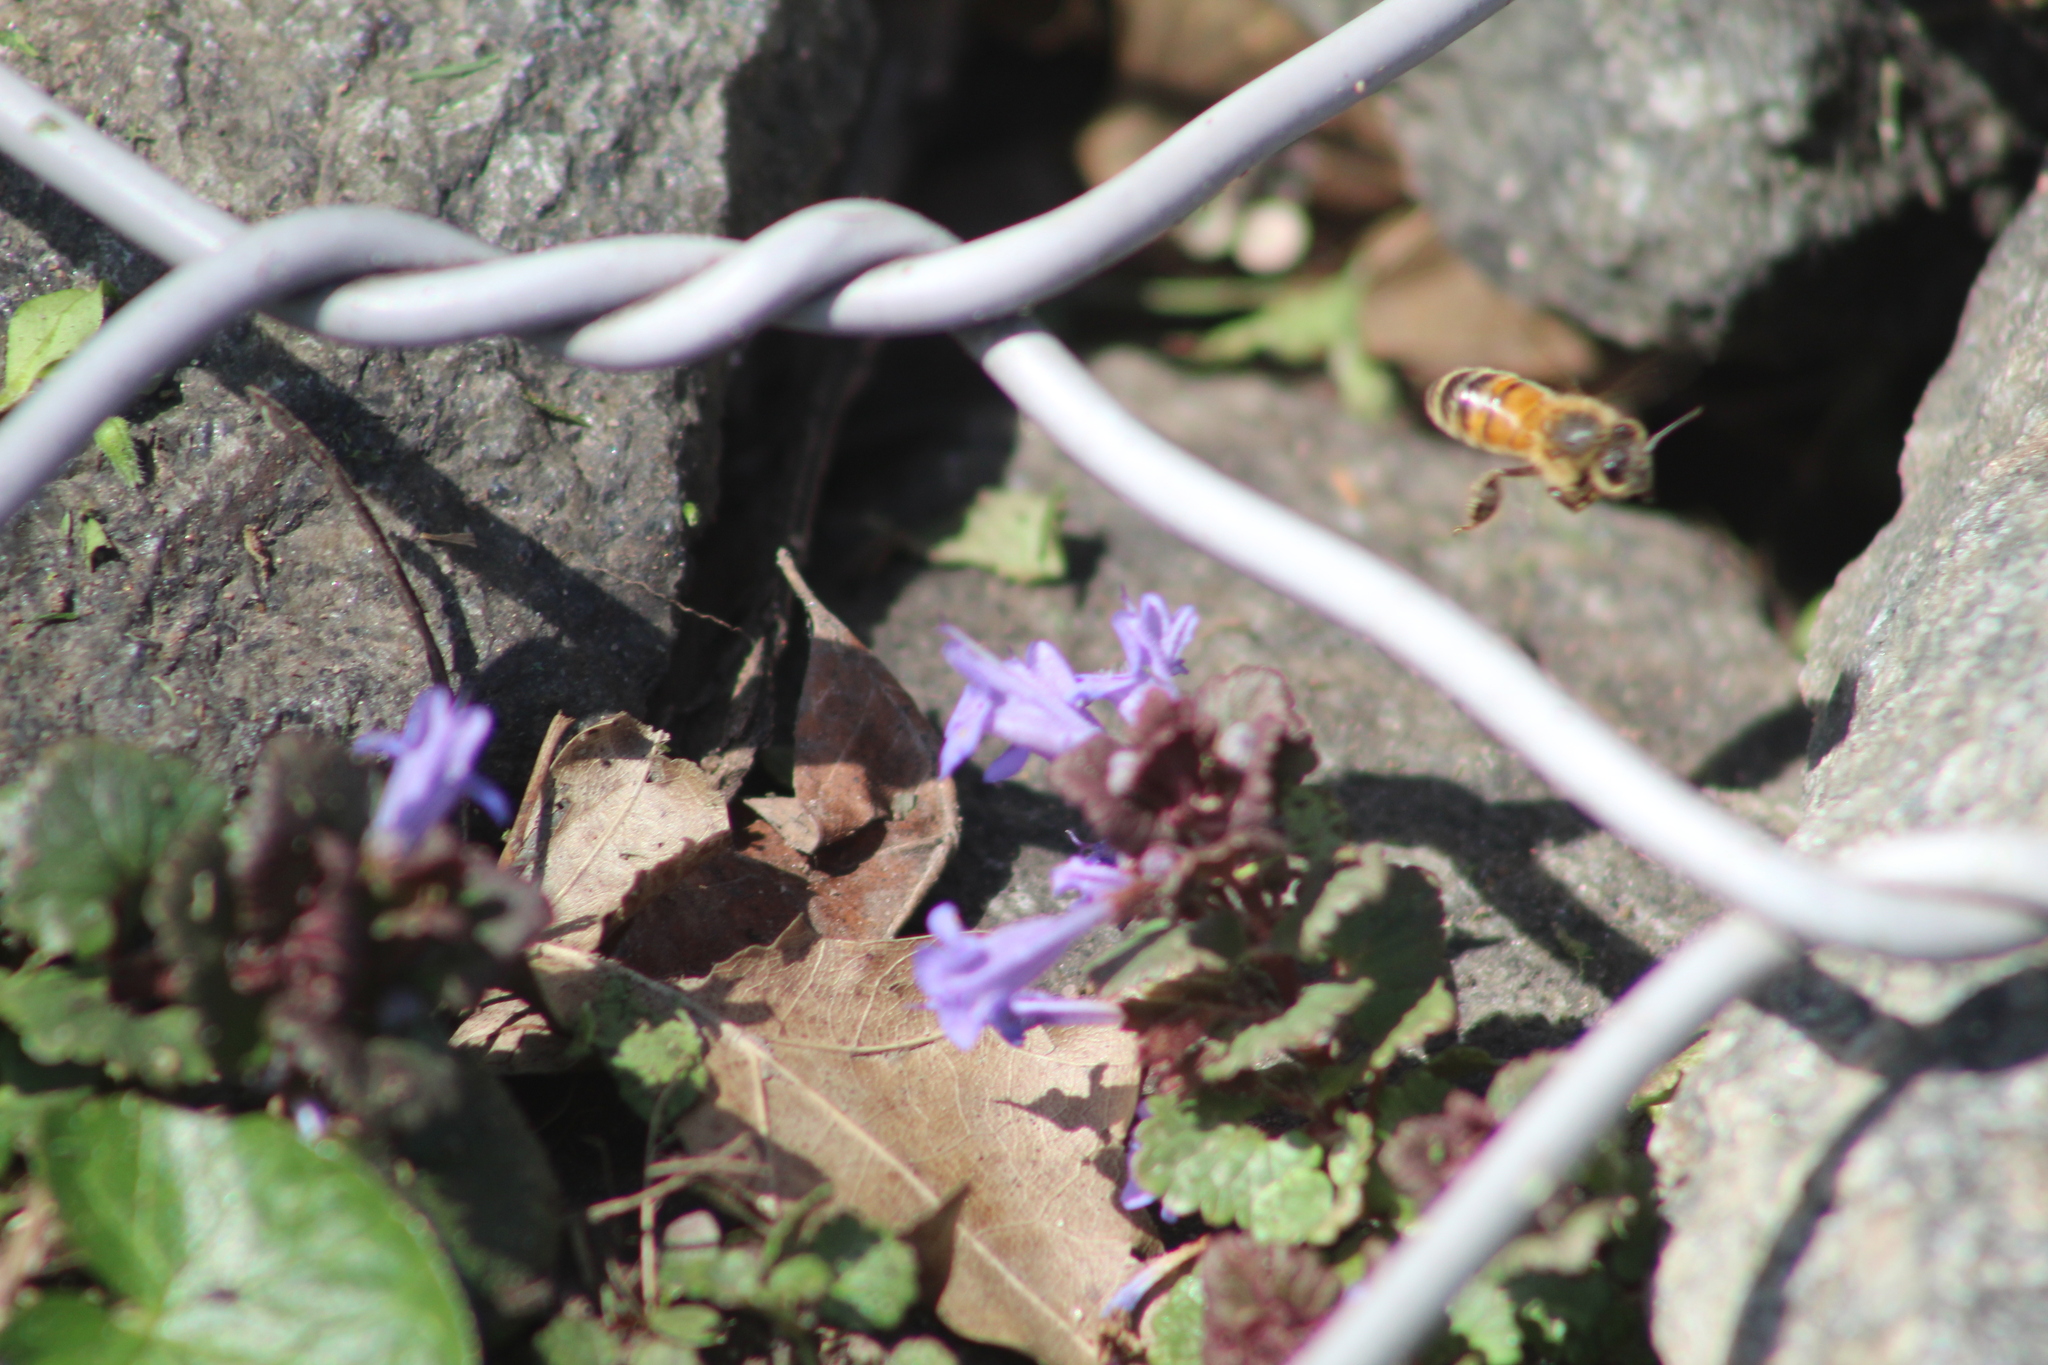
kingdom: Animalia
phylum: Arthropoda
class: Insecta
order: Hymenoptera
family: Apidae
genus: Apis
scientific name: Apis mellifera
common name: Honey bee
